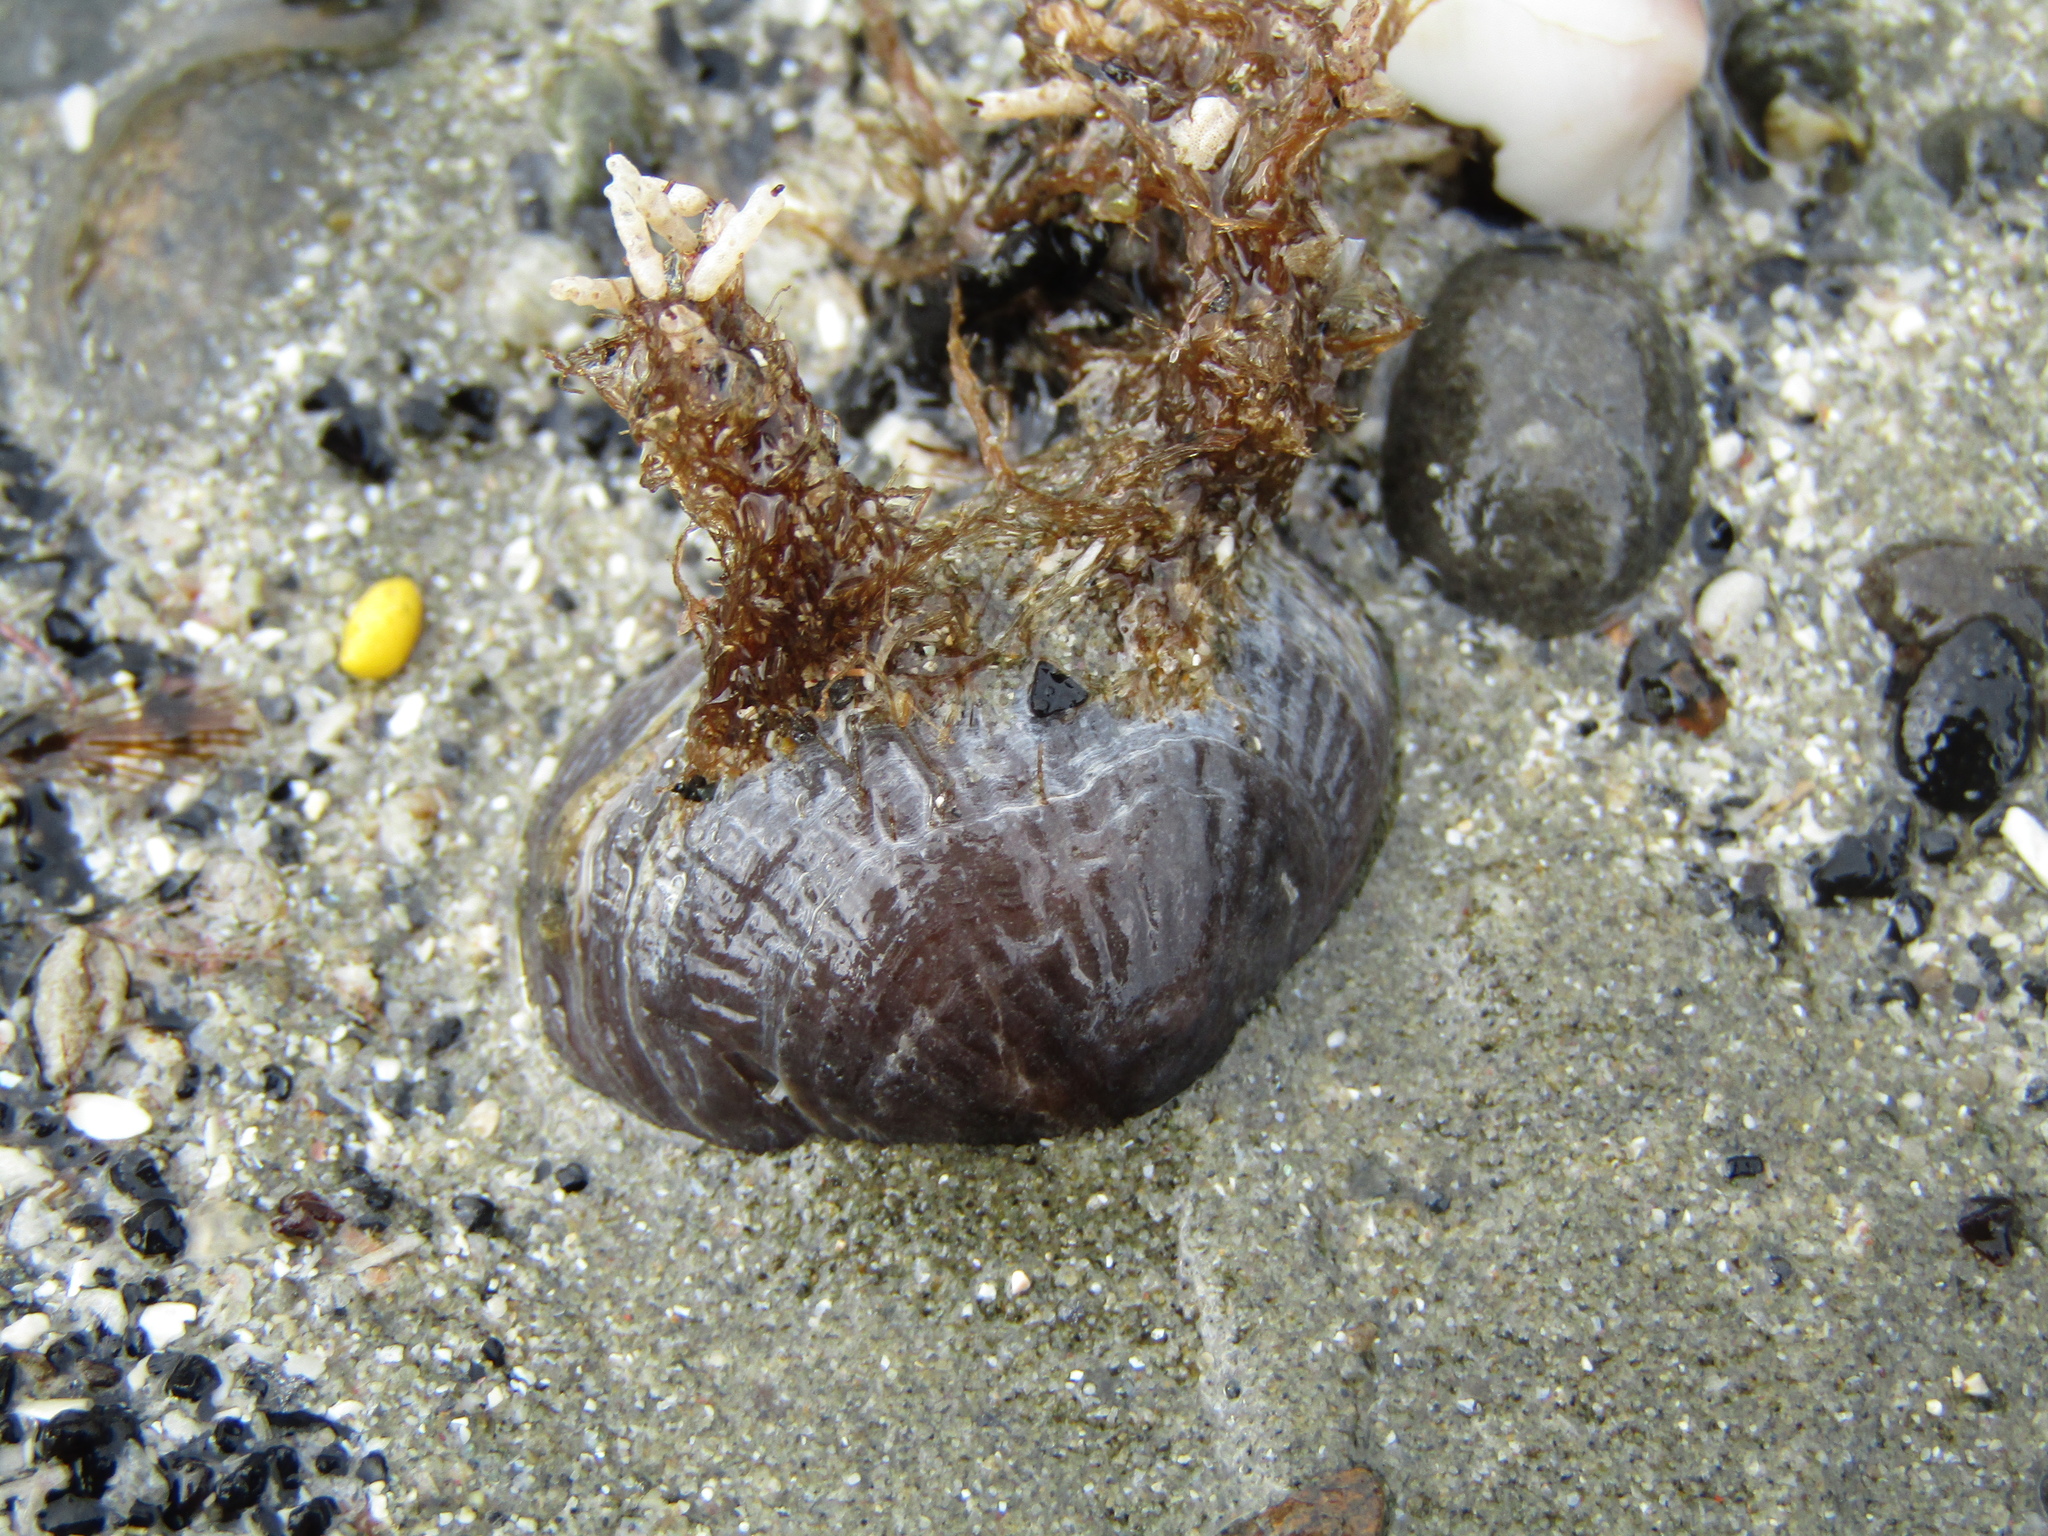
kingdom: Animalia
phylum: Brachiopoda
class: Rhynchonellata
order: Rhynchonellida
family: Notosariidae
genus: Notosaria
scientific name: Notosaria nigricans
